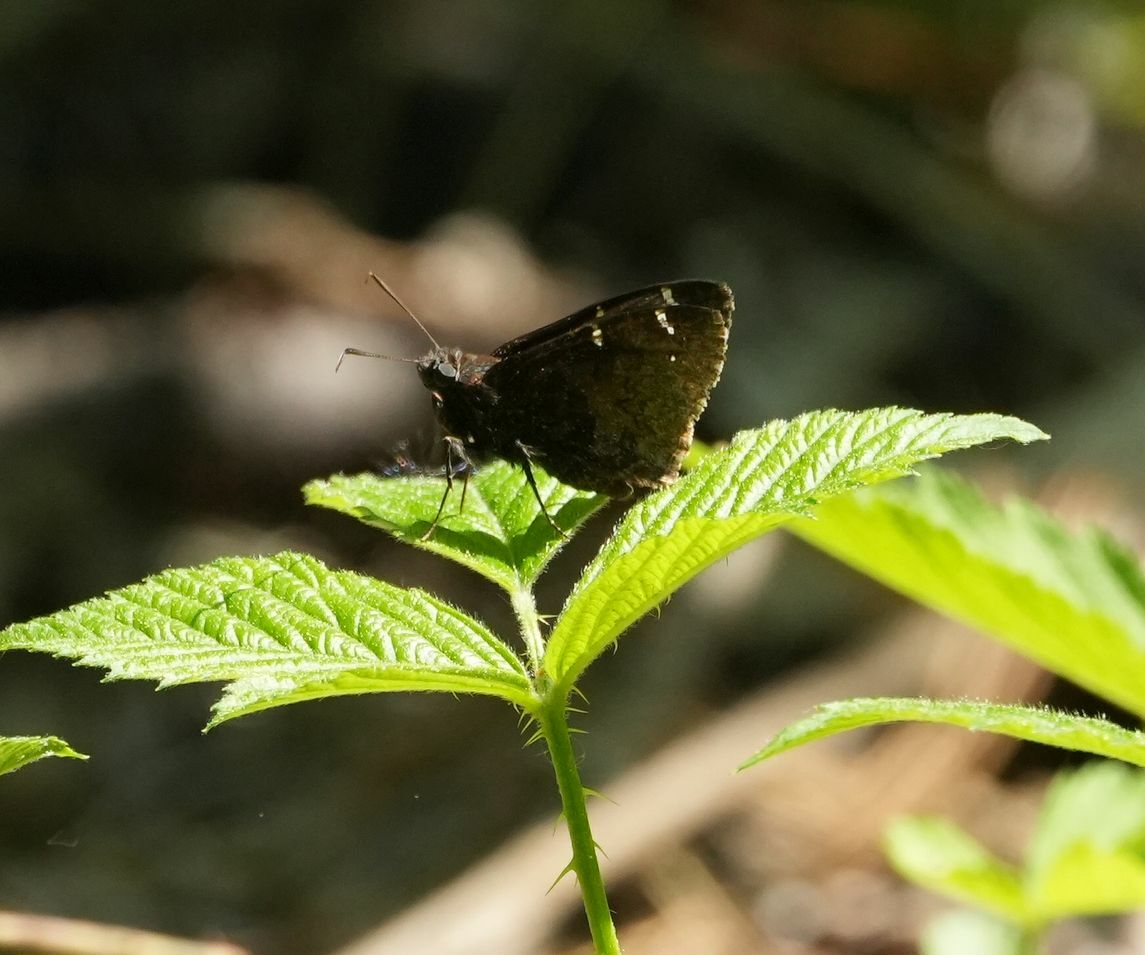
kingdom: Animalia
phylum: Arthropoda
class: Insecta
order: Lepidoptera
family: Hesperiidae
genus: Thorybes
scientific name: Thorybes pylades
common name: Northern cloudywing
